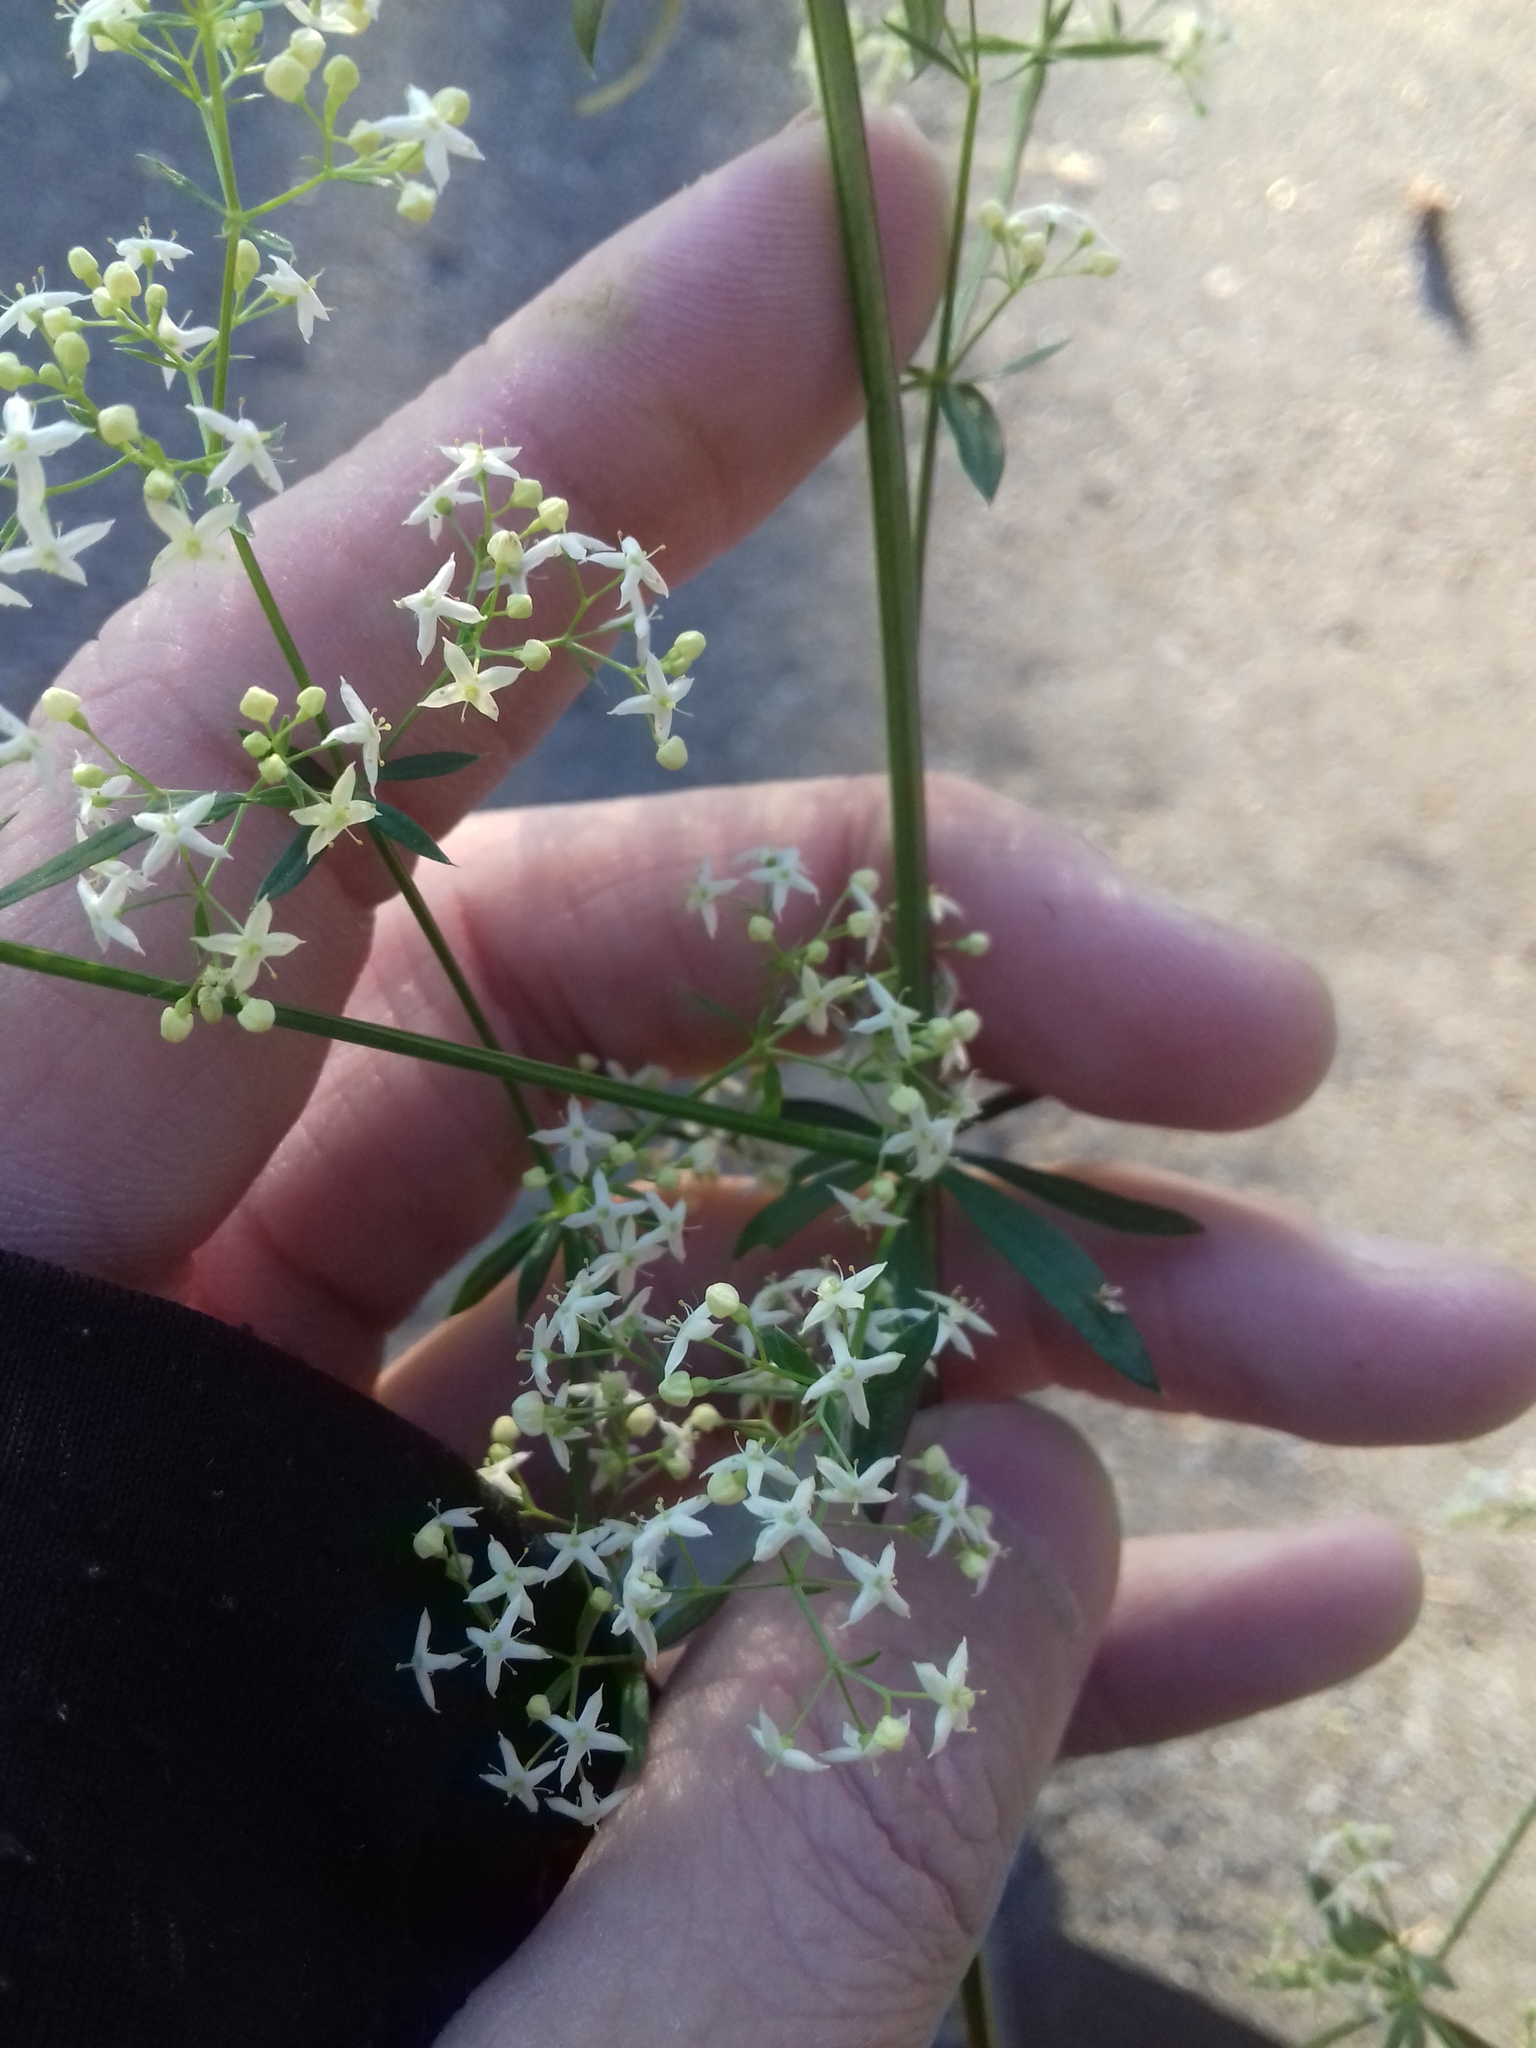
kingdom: Plantae
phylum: Tracheophyta
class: Magnoliopsida
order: Gentianales
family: Rubiaceae
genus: Galium
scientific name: Galium mollugo
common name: Hedge bedstraw
